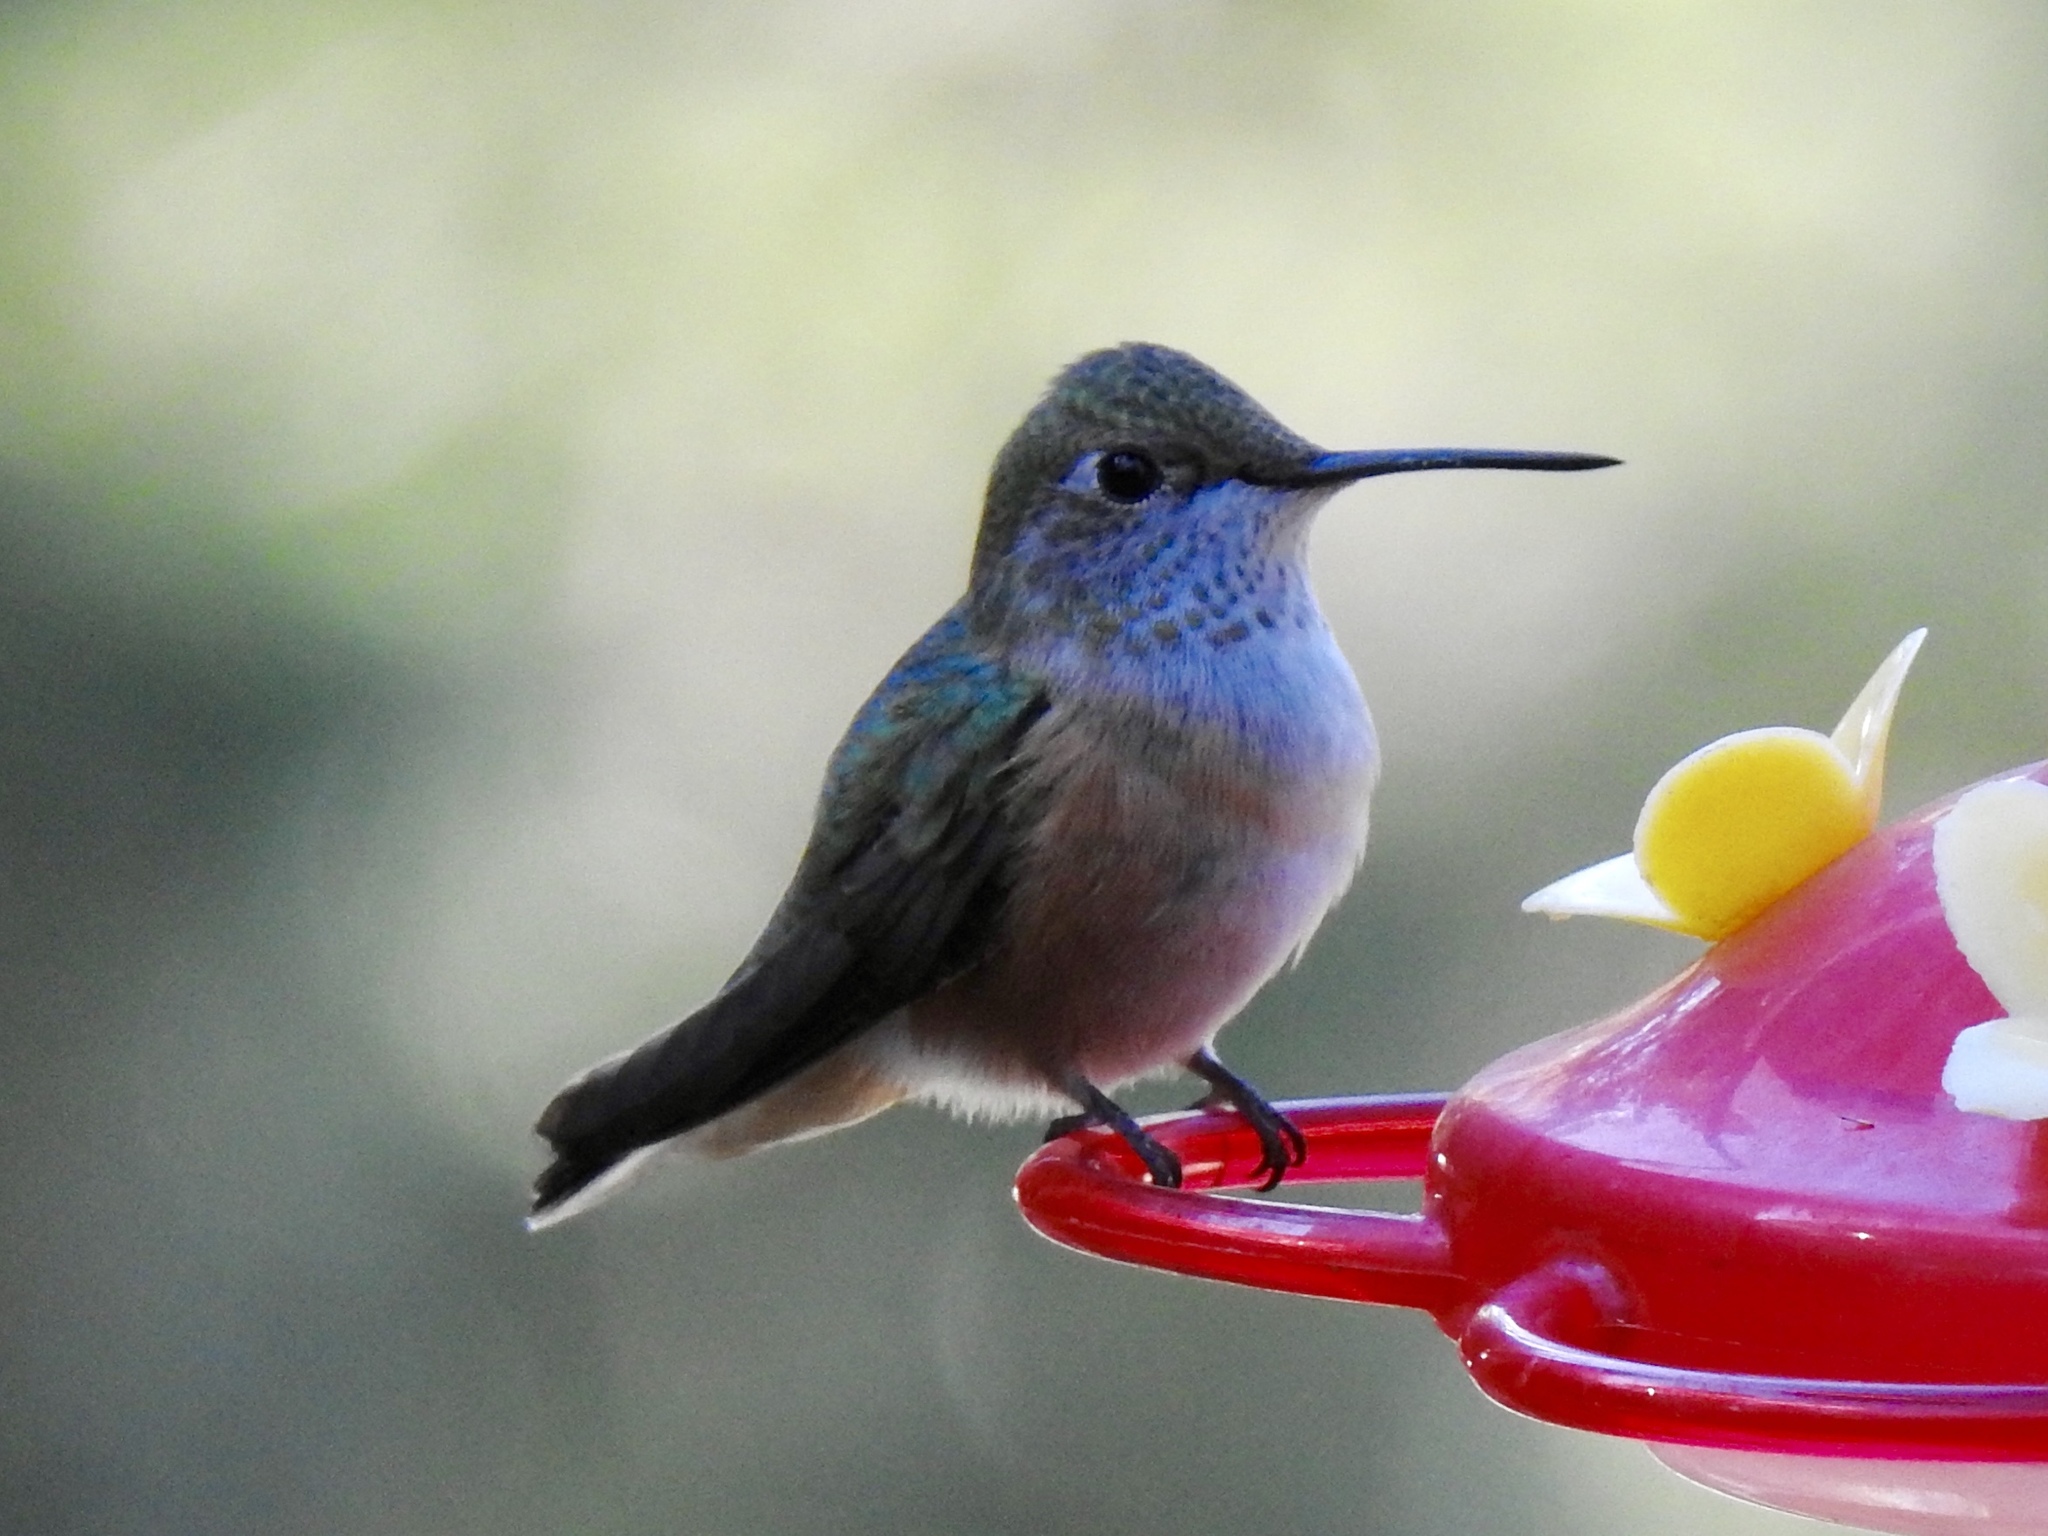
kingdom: Animalia
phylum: Chordata
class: Aves
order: Apodiformes
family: Trochilidae
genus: Selasphorus
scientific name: Selasphorus rufus
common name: Rufous hummingbird
